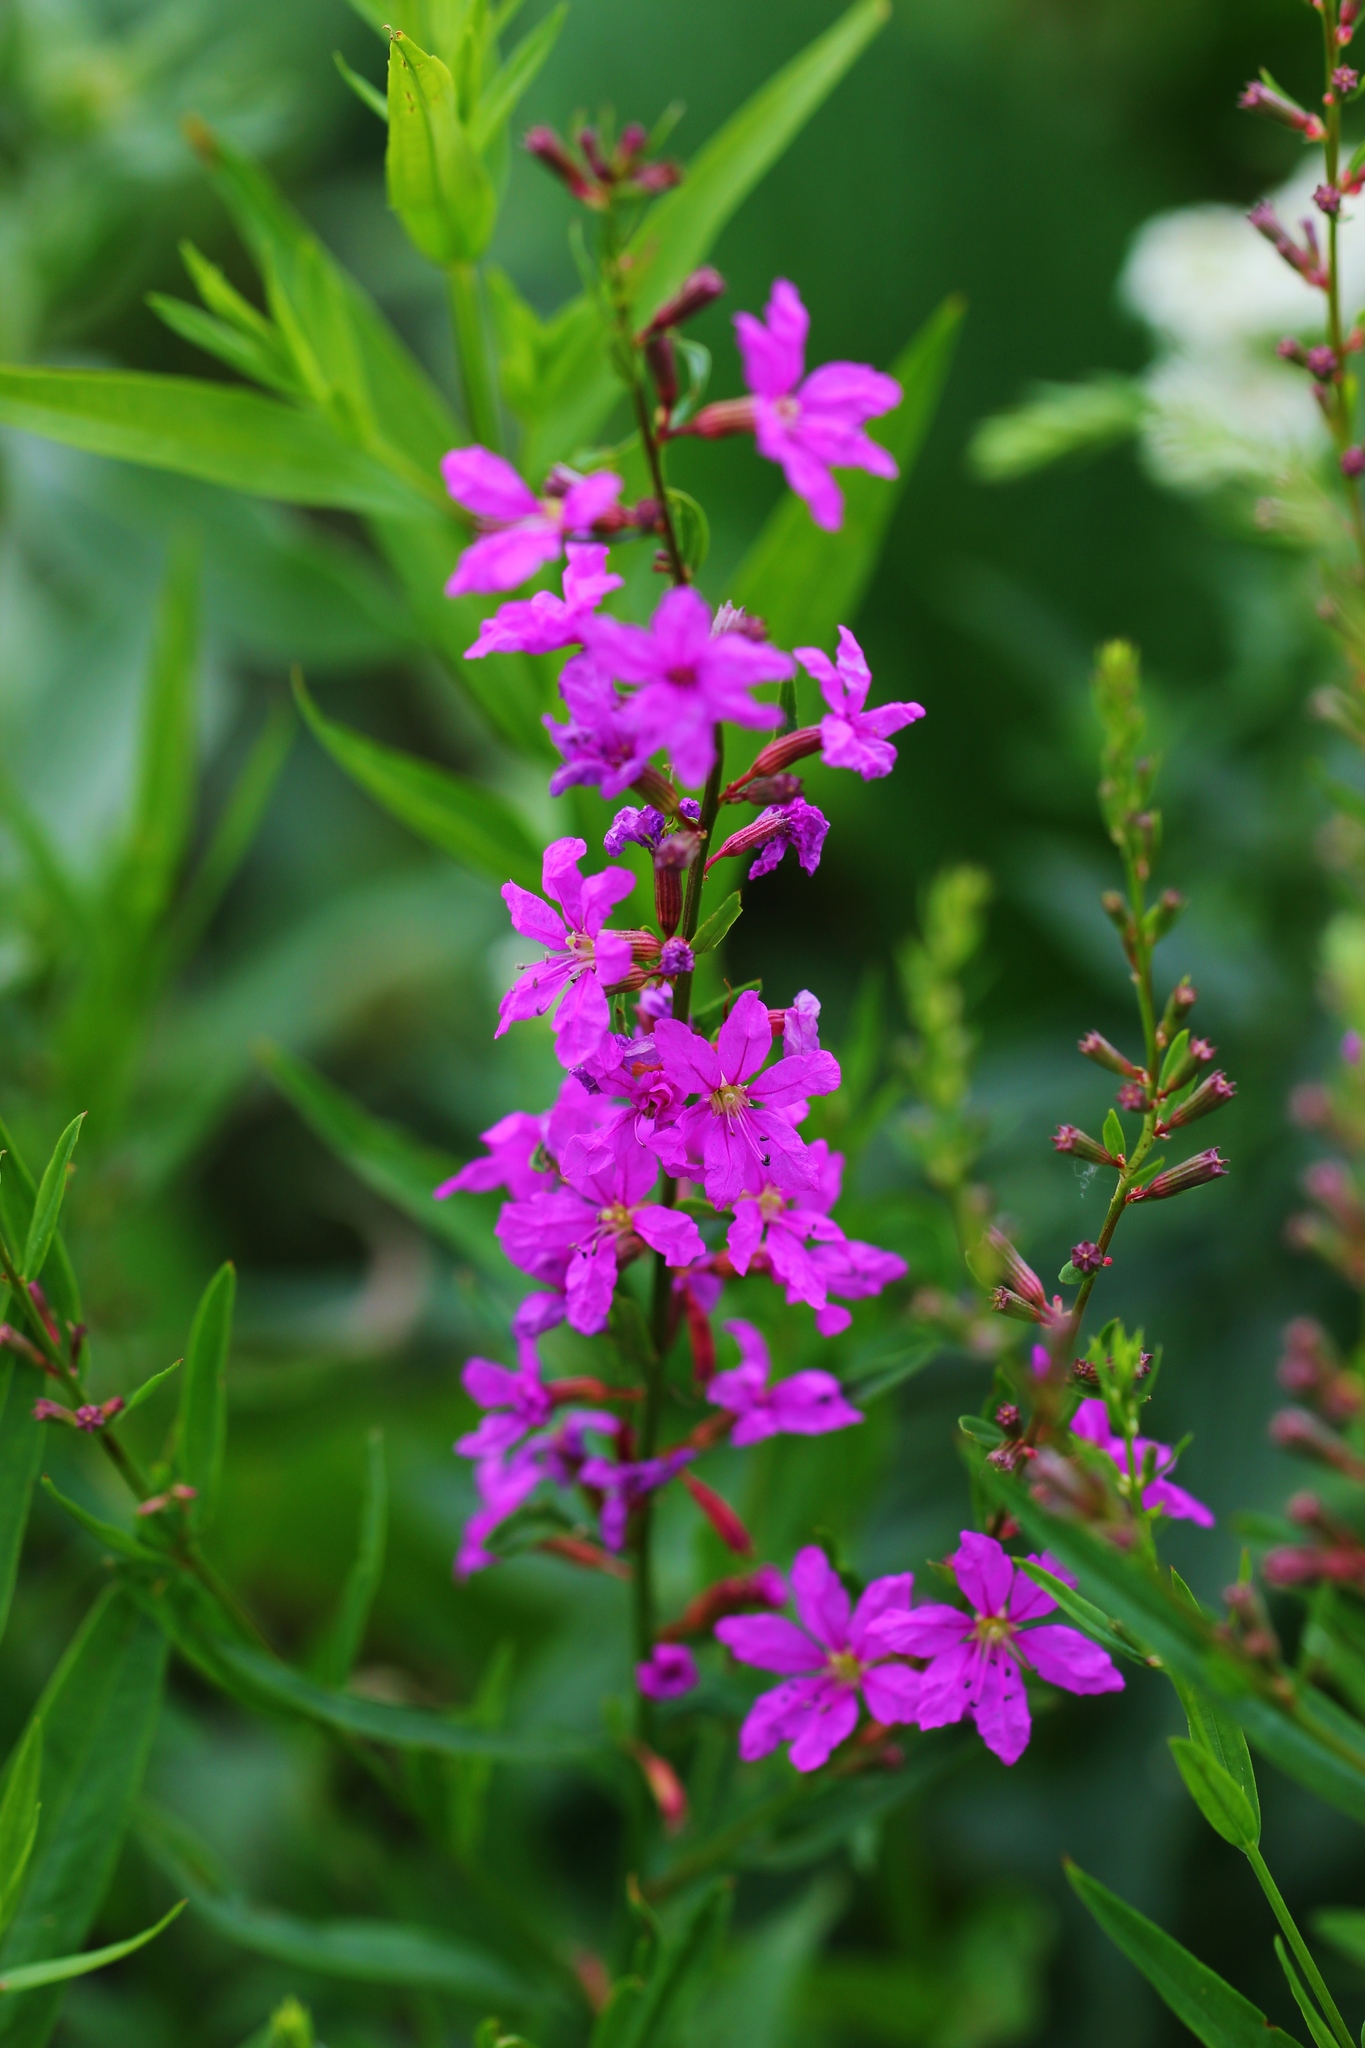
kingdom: Plantae
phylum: Tracheophyta
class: Magnoliopsida
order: Myrtales
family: Lythraceae
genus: Lythrum
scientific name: Lythrum virgatum
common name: European wand loosestrife
